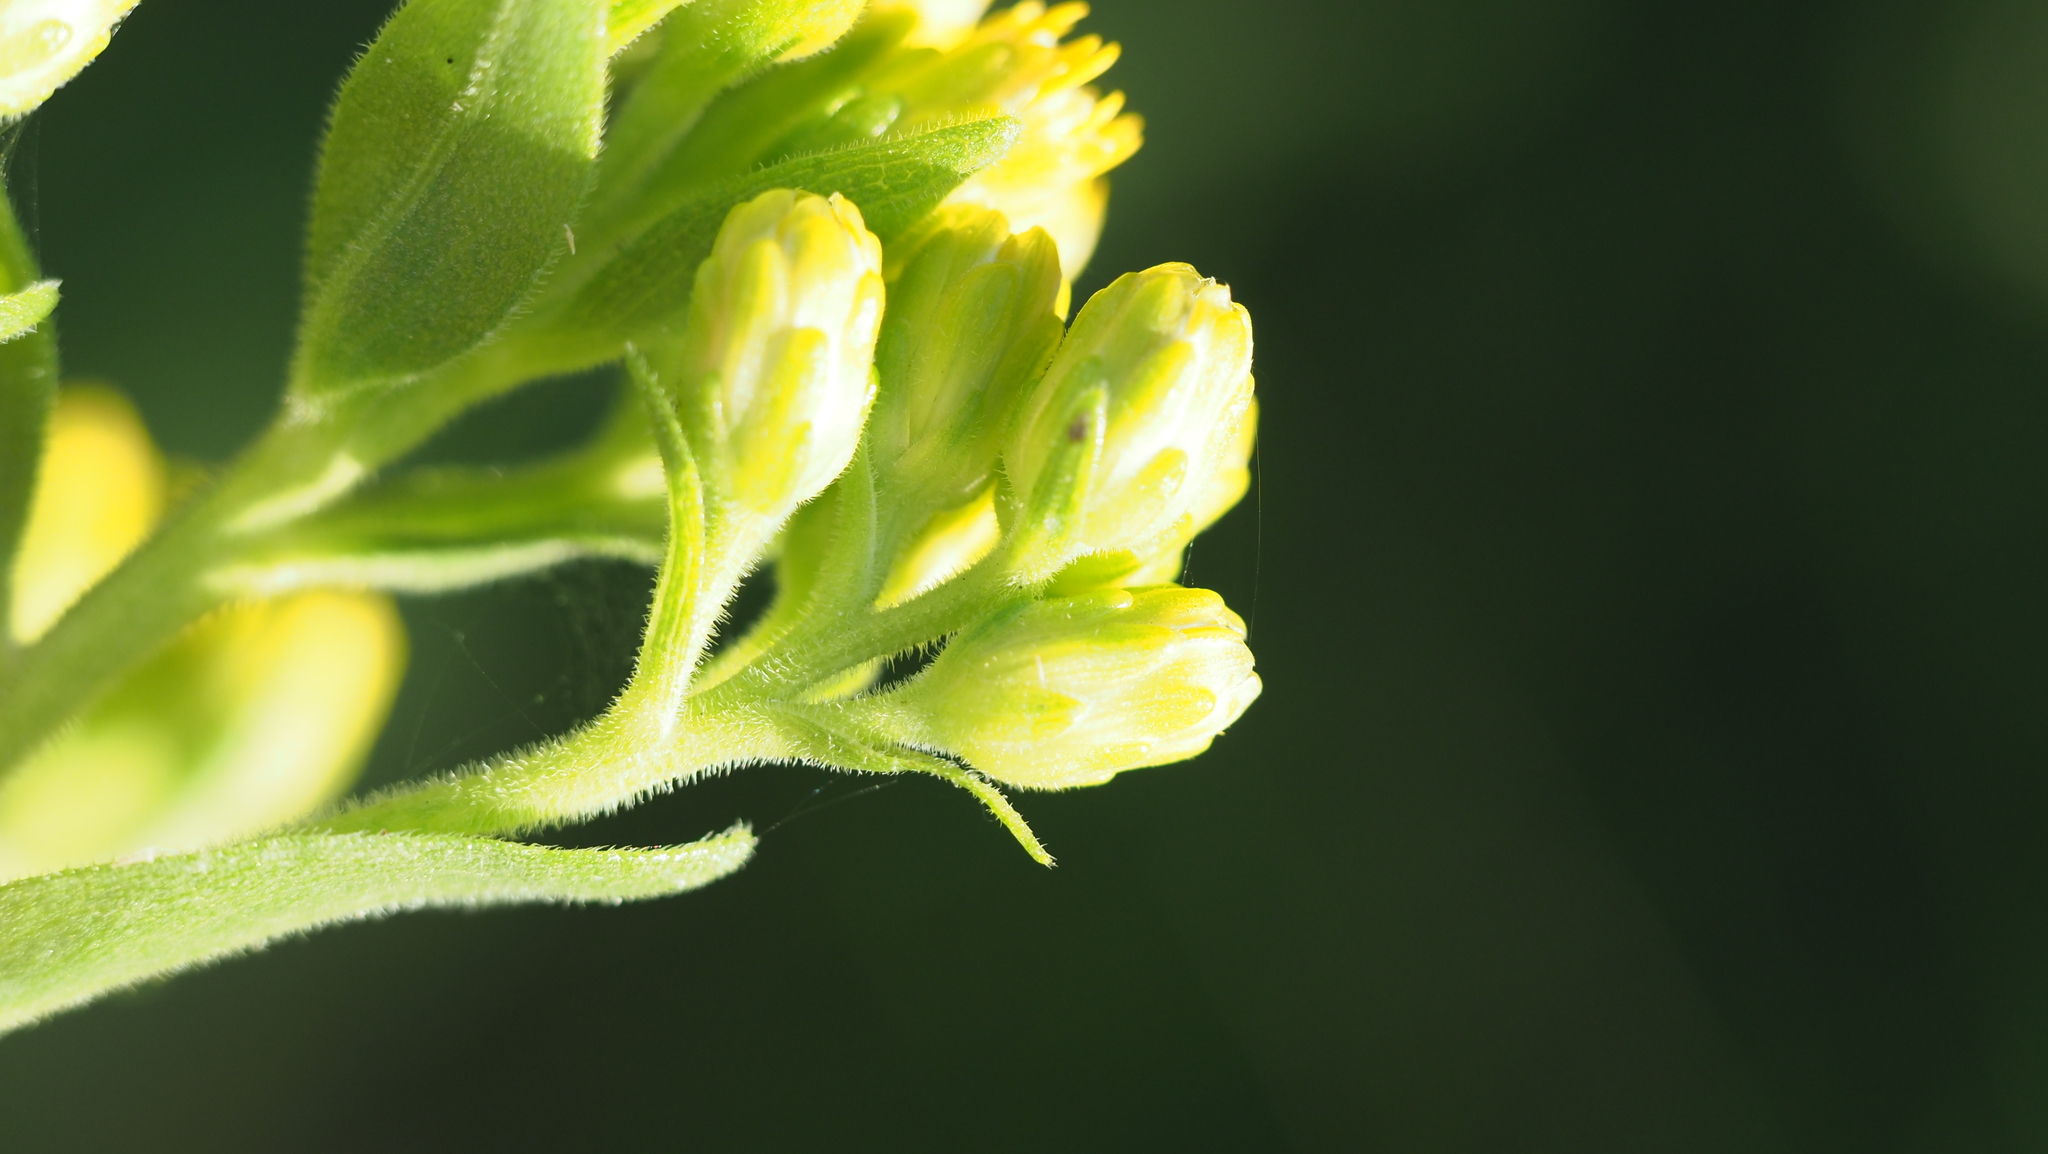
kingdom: Plantae
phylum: Tracheophyta
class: Magnoliopsida
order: Asterales
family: Asteraceae
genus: Solidago
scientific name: Solidago rigida
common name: Rigid goldenrod
